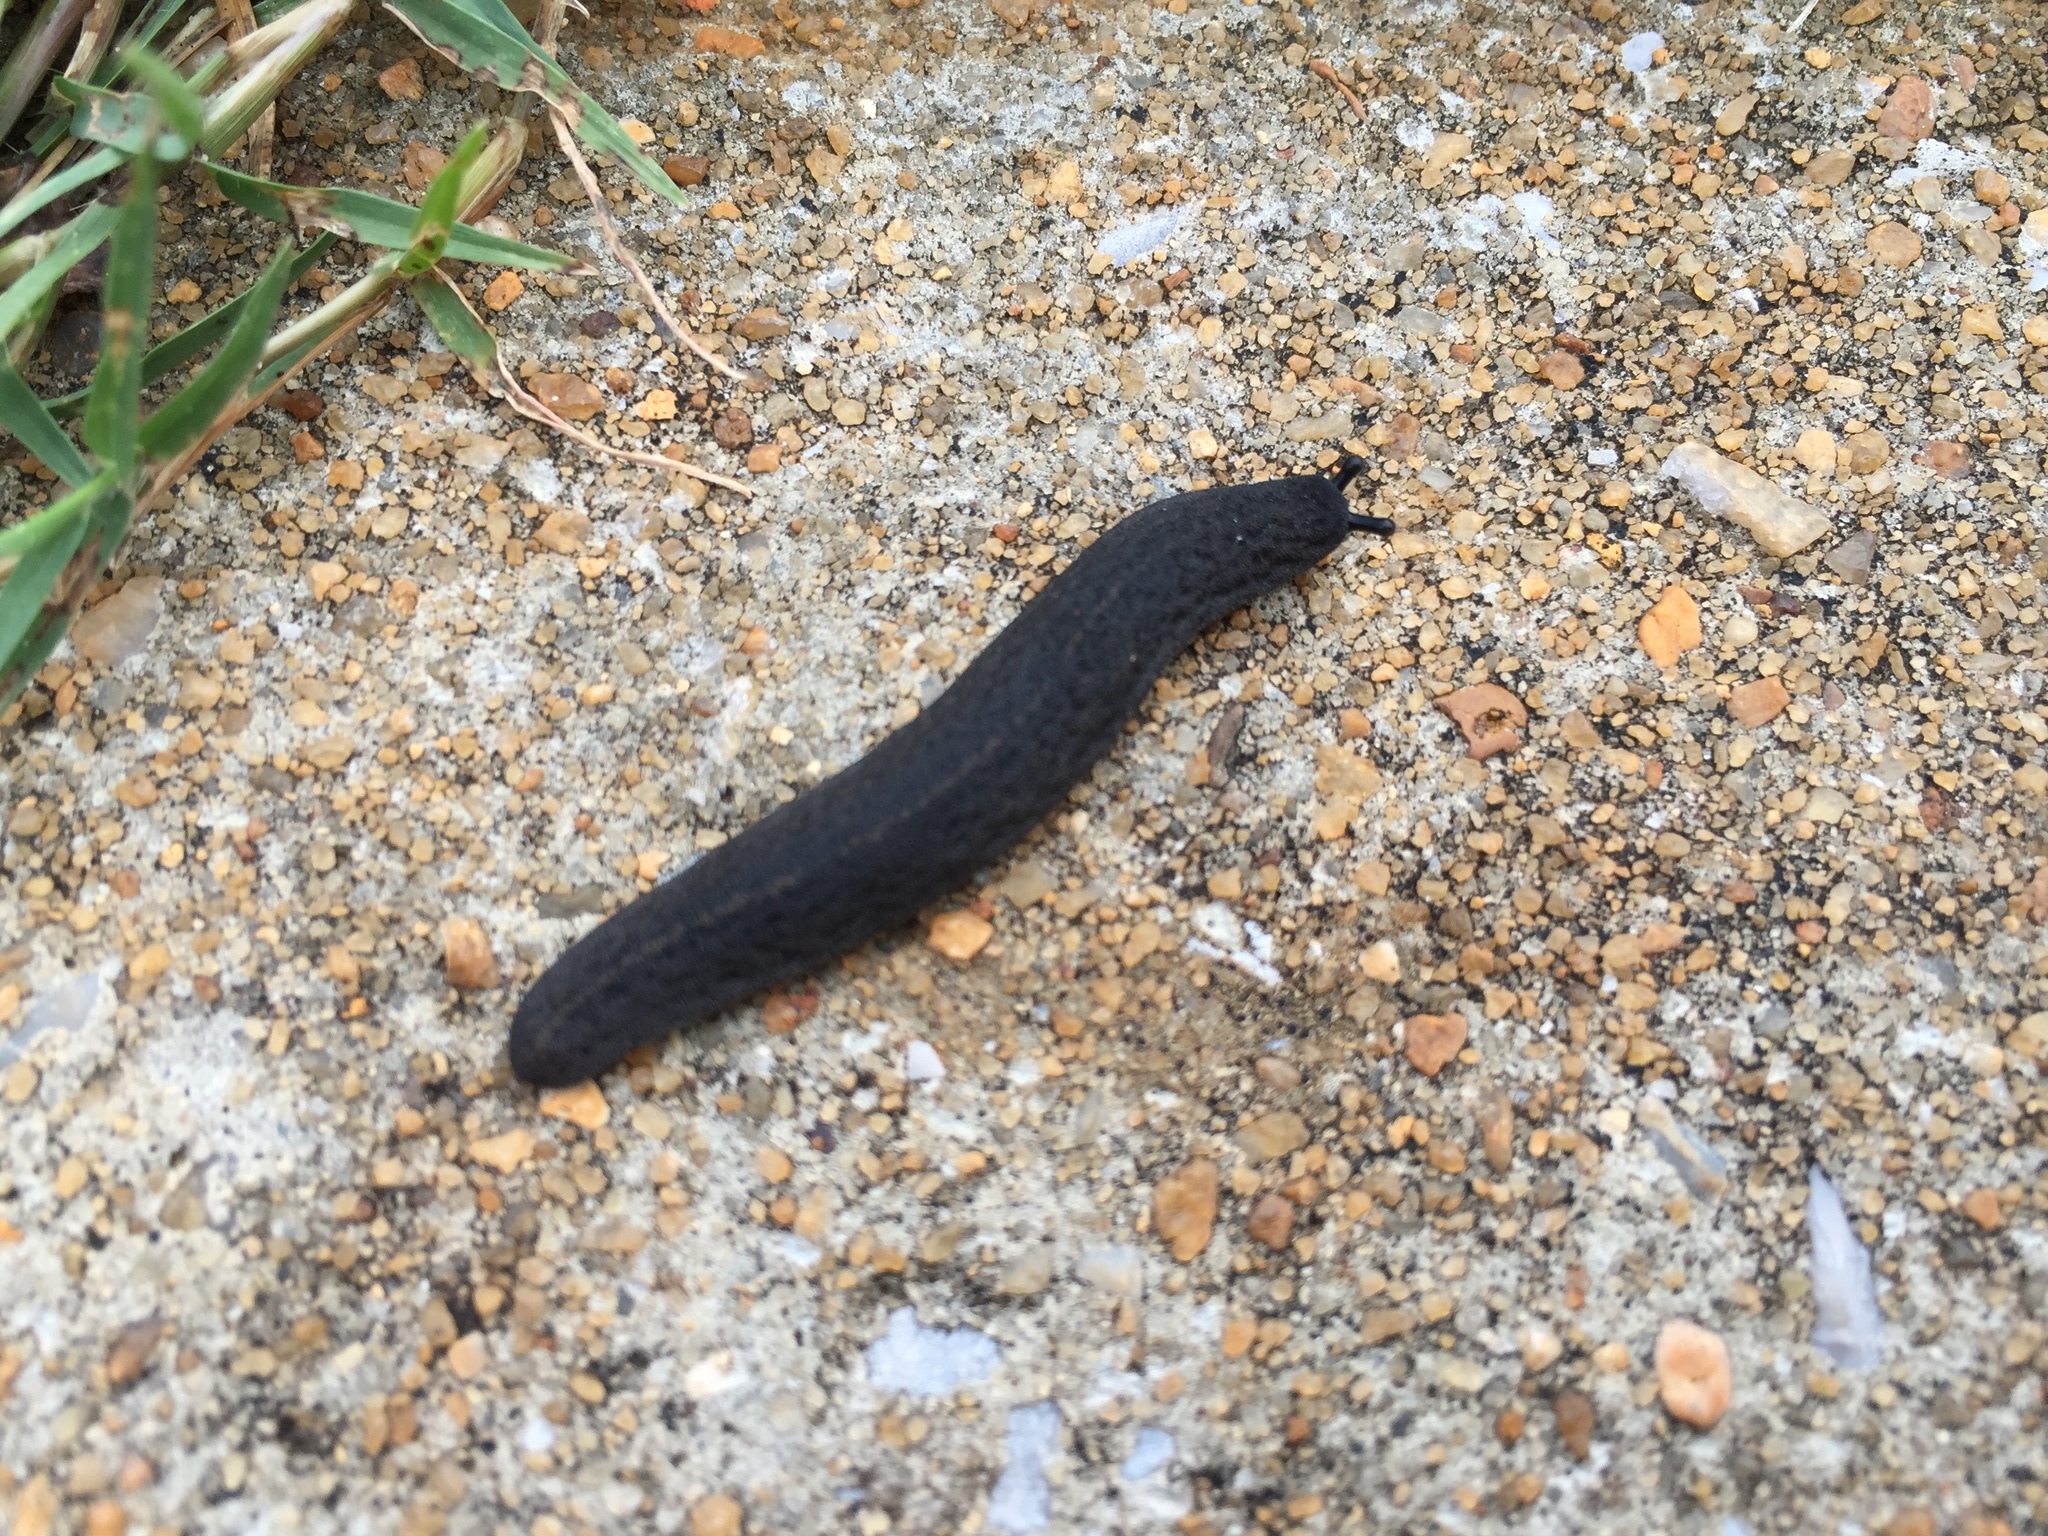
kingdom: Animalia
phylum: Mollusca
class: Gastropoda
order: Systellommatophora
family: Veronicellidae
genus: Belocaulus
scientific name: Belocaulus angustipes
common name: Black velvet leatherleaf slug
